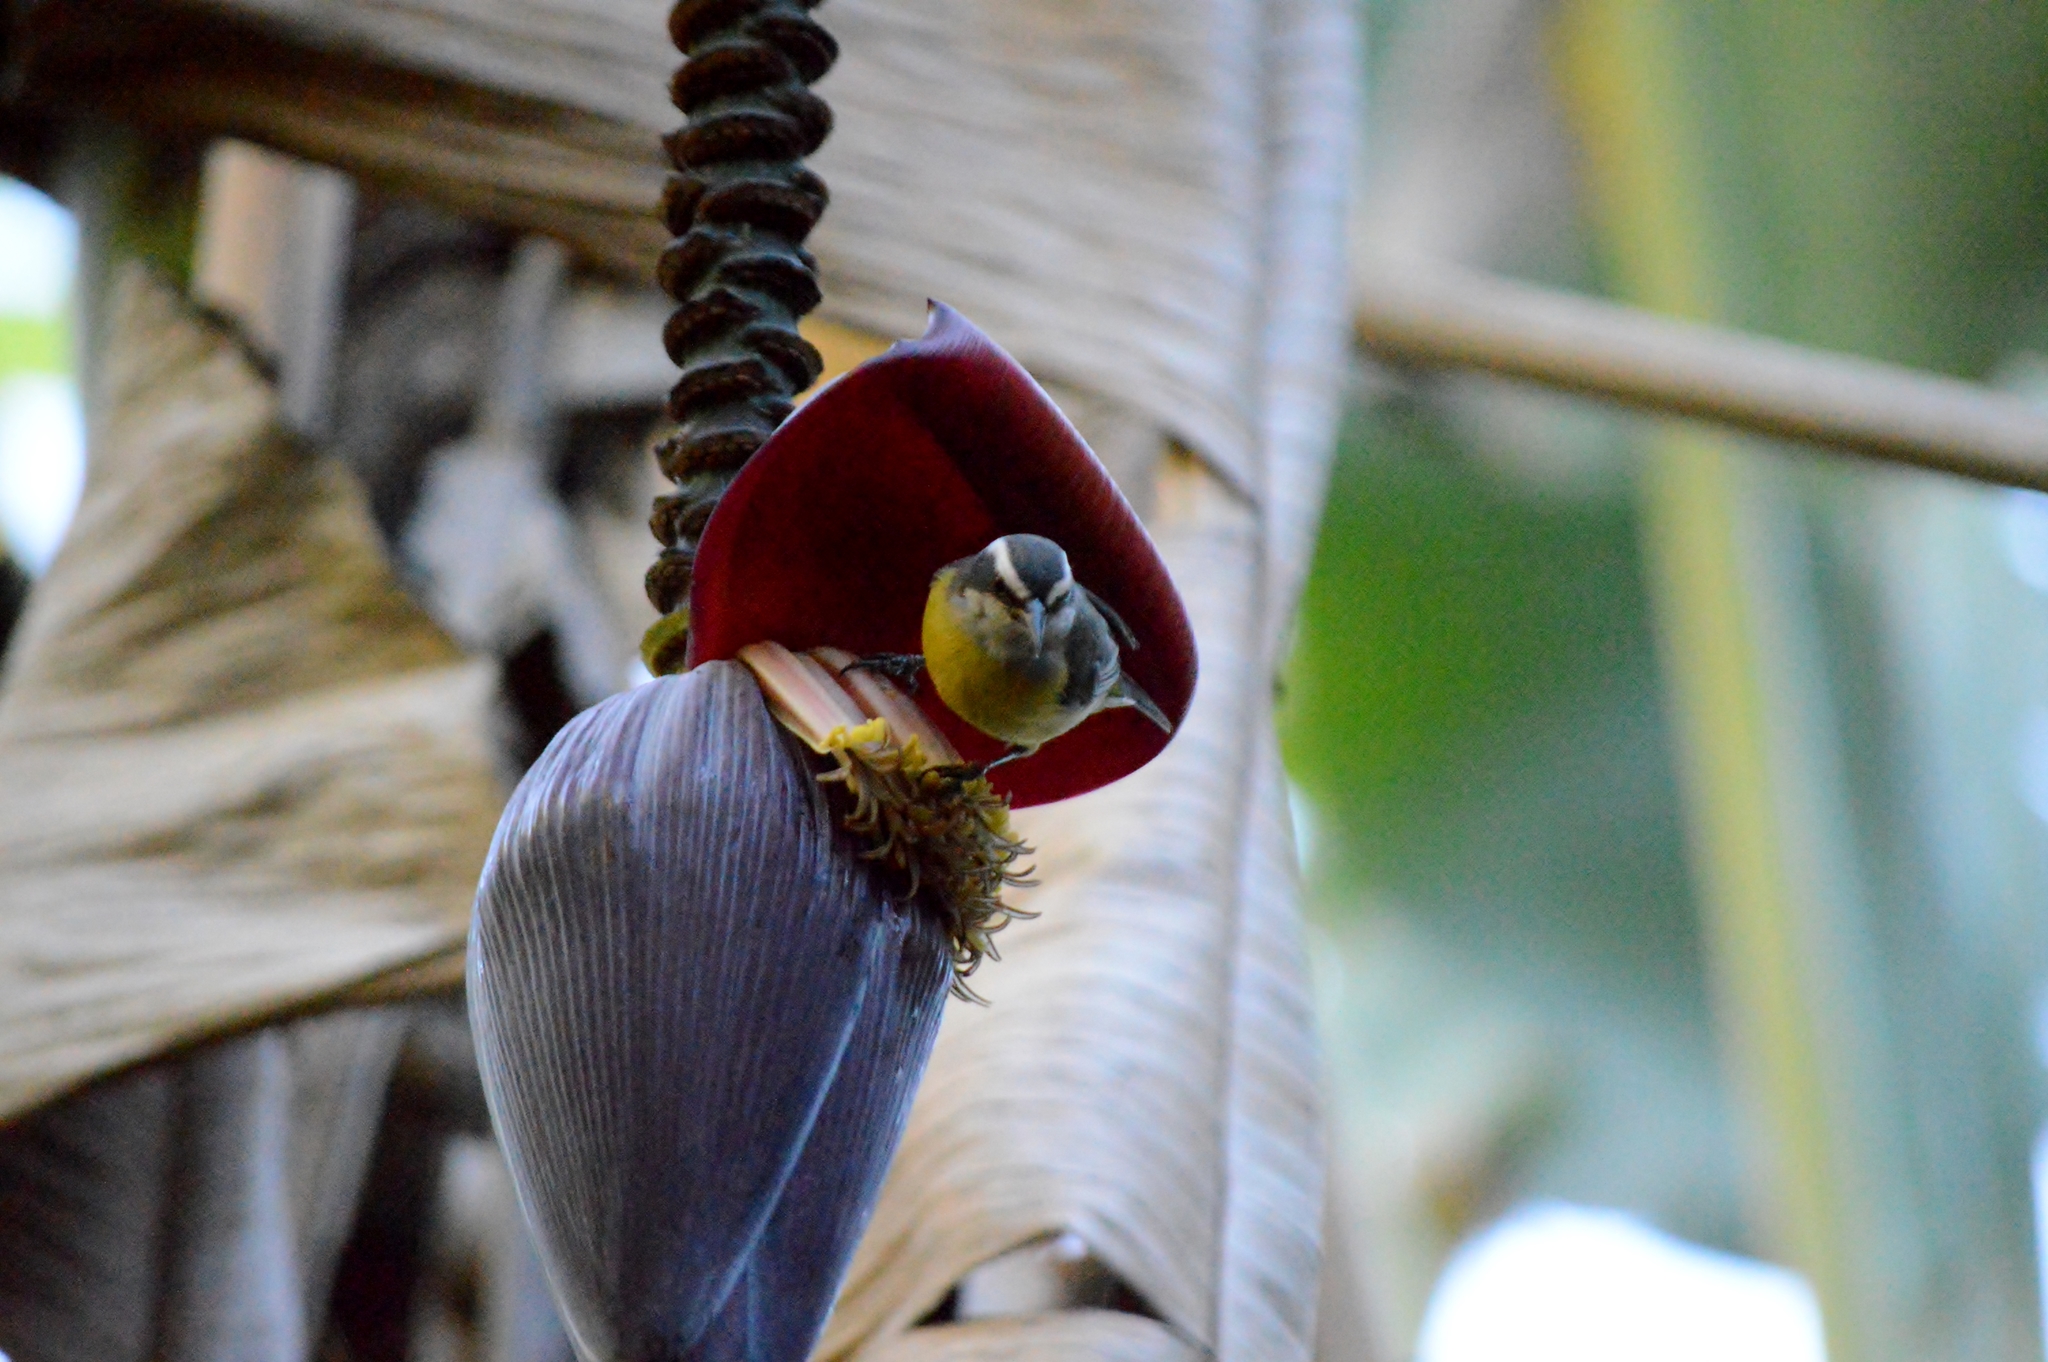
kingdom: Animalia
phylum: Chordata
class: Aves
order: Passeriformes
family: Thraupidae
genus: Coereba
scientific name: Coereba flaveola
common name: Bananaquit
